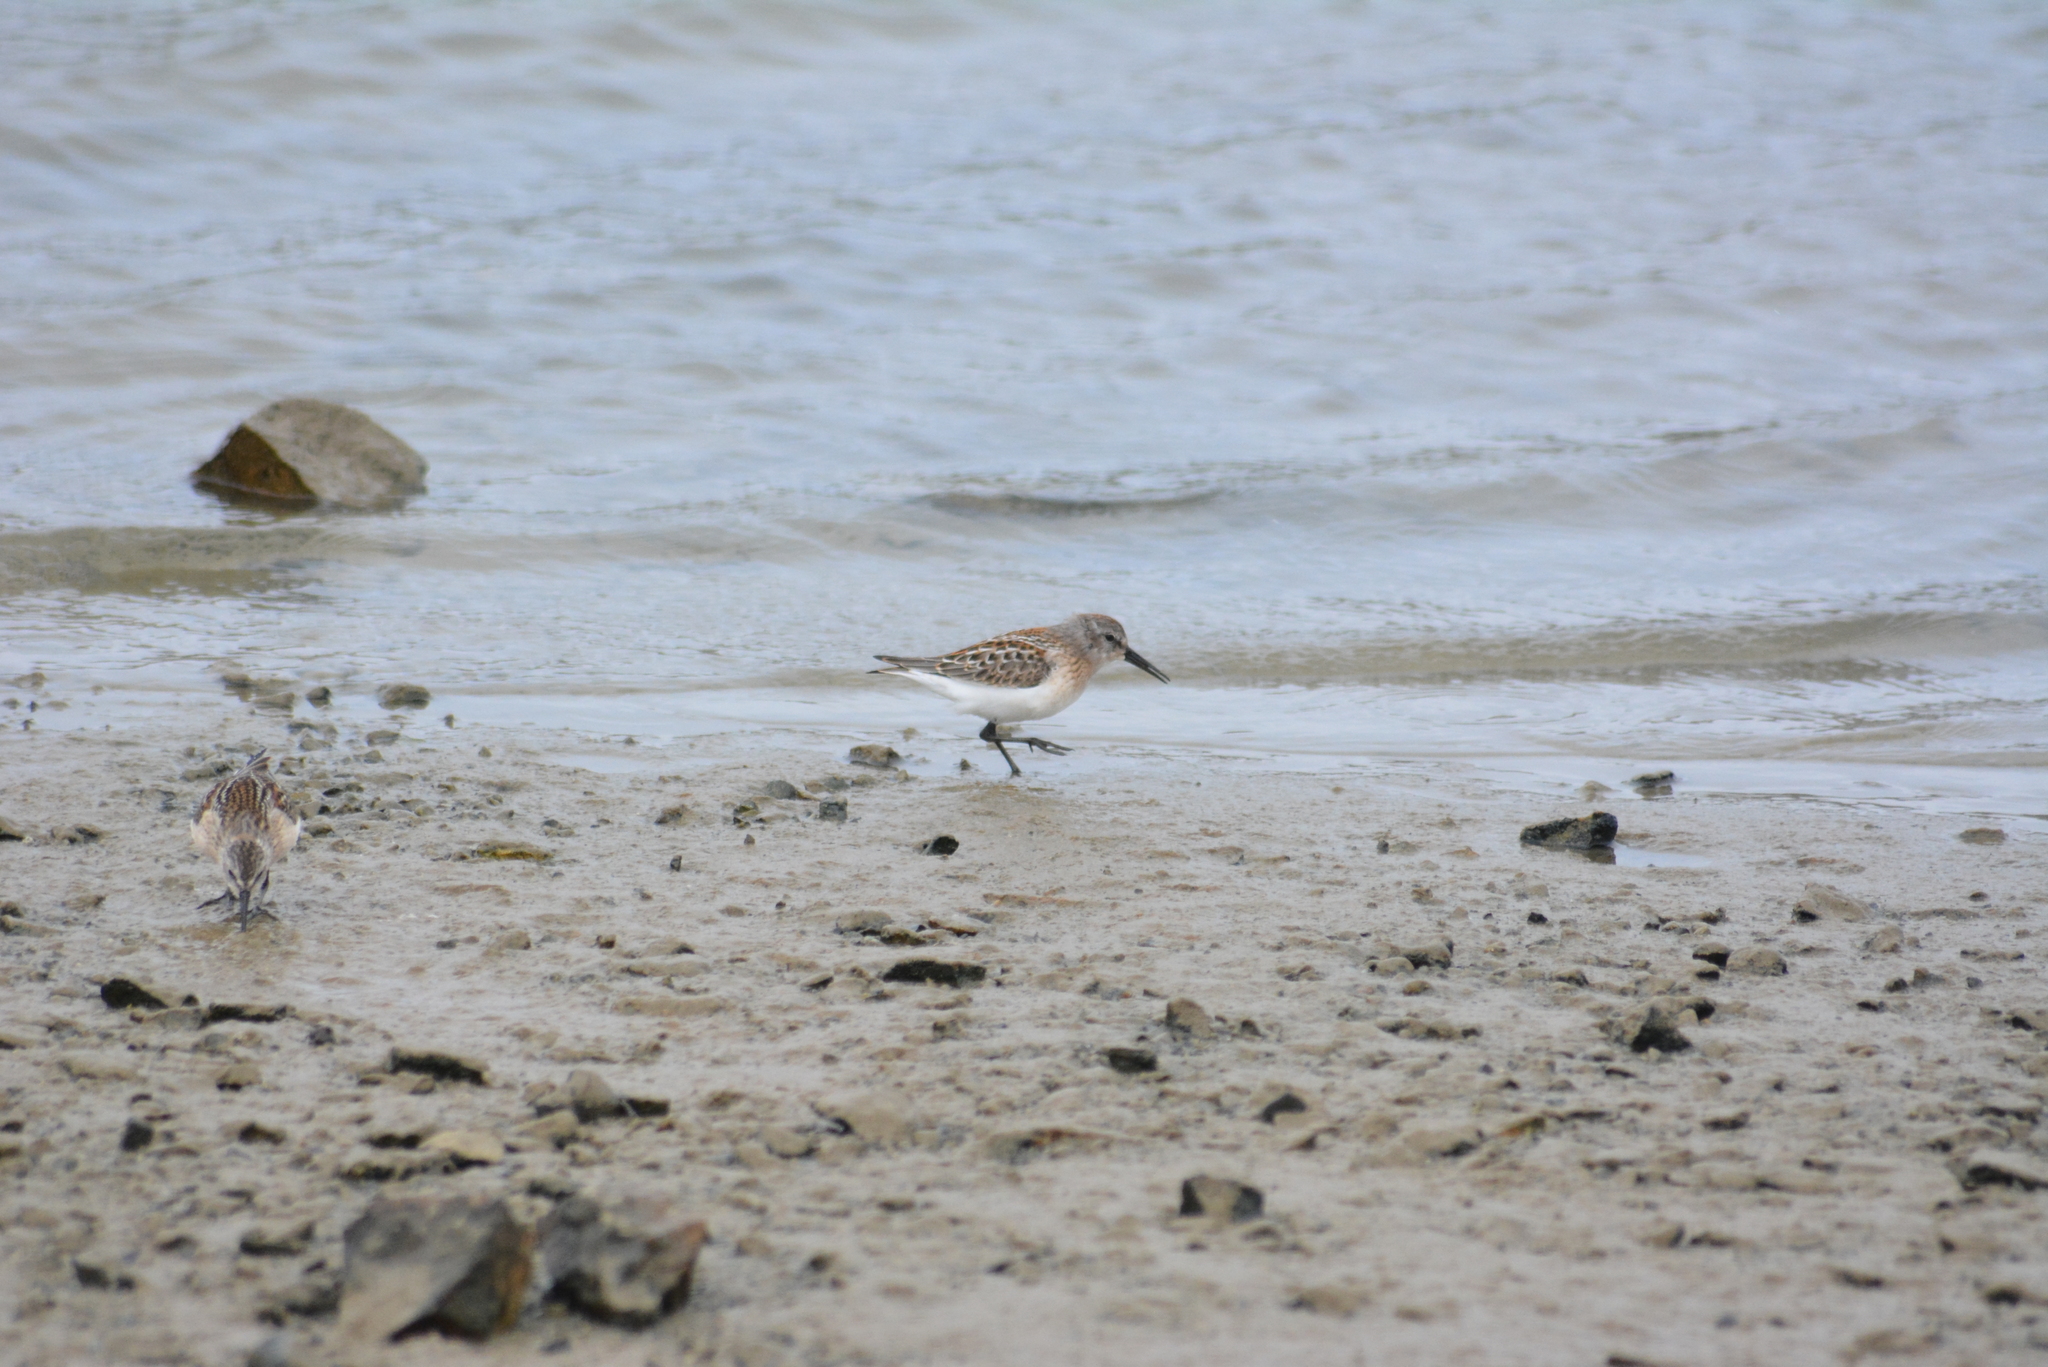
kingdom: Animalia
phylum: Chordata
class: Aves
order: Charadriiformes
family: Scolopacidae
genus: Calidris
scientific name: Calidris mauri
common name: Western sandpiper
